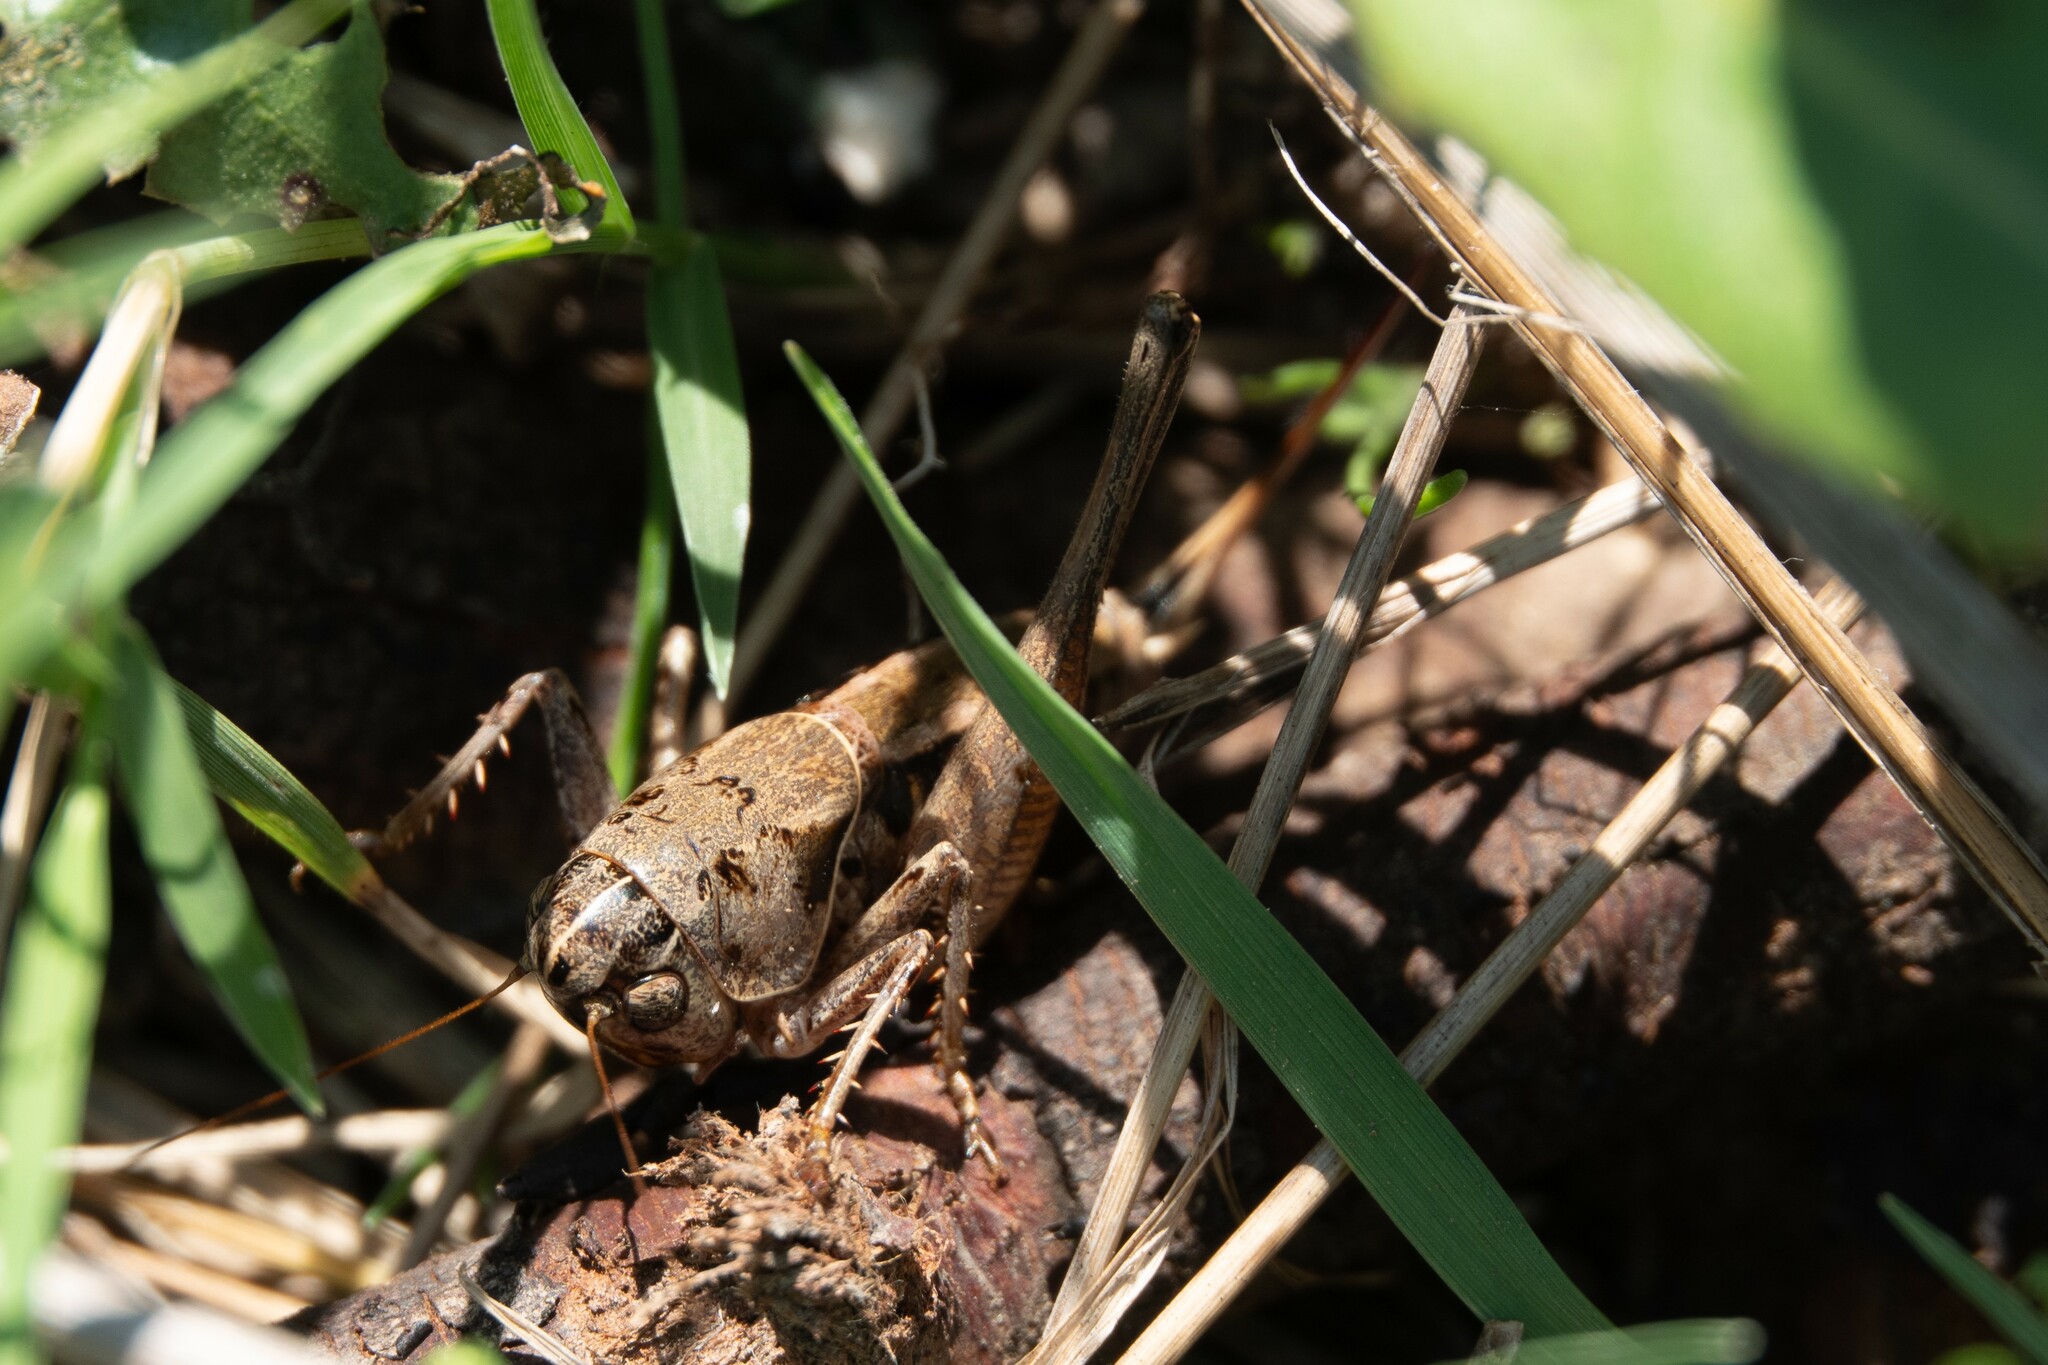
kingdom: Animalia
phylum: Arthropoda
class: Insecta
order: Orthoptera
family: Tettigoniidae
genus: Bucephaloptera
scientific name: Bucephaloptera bucephala
